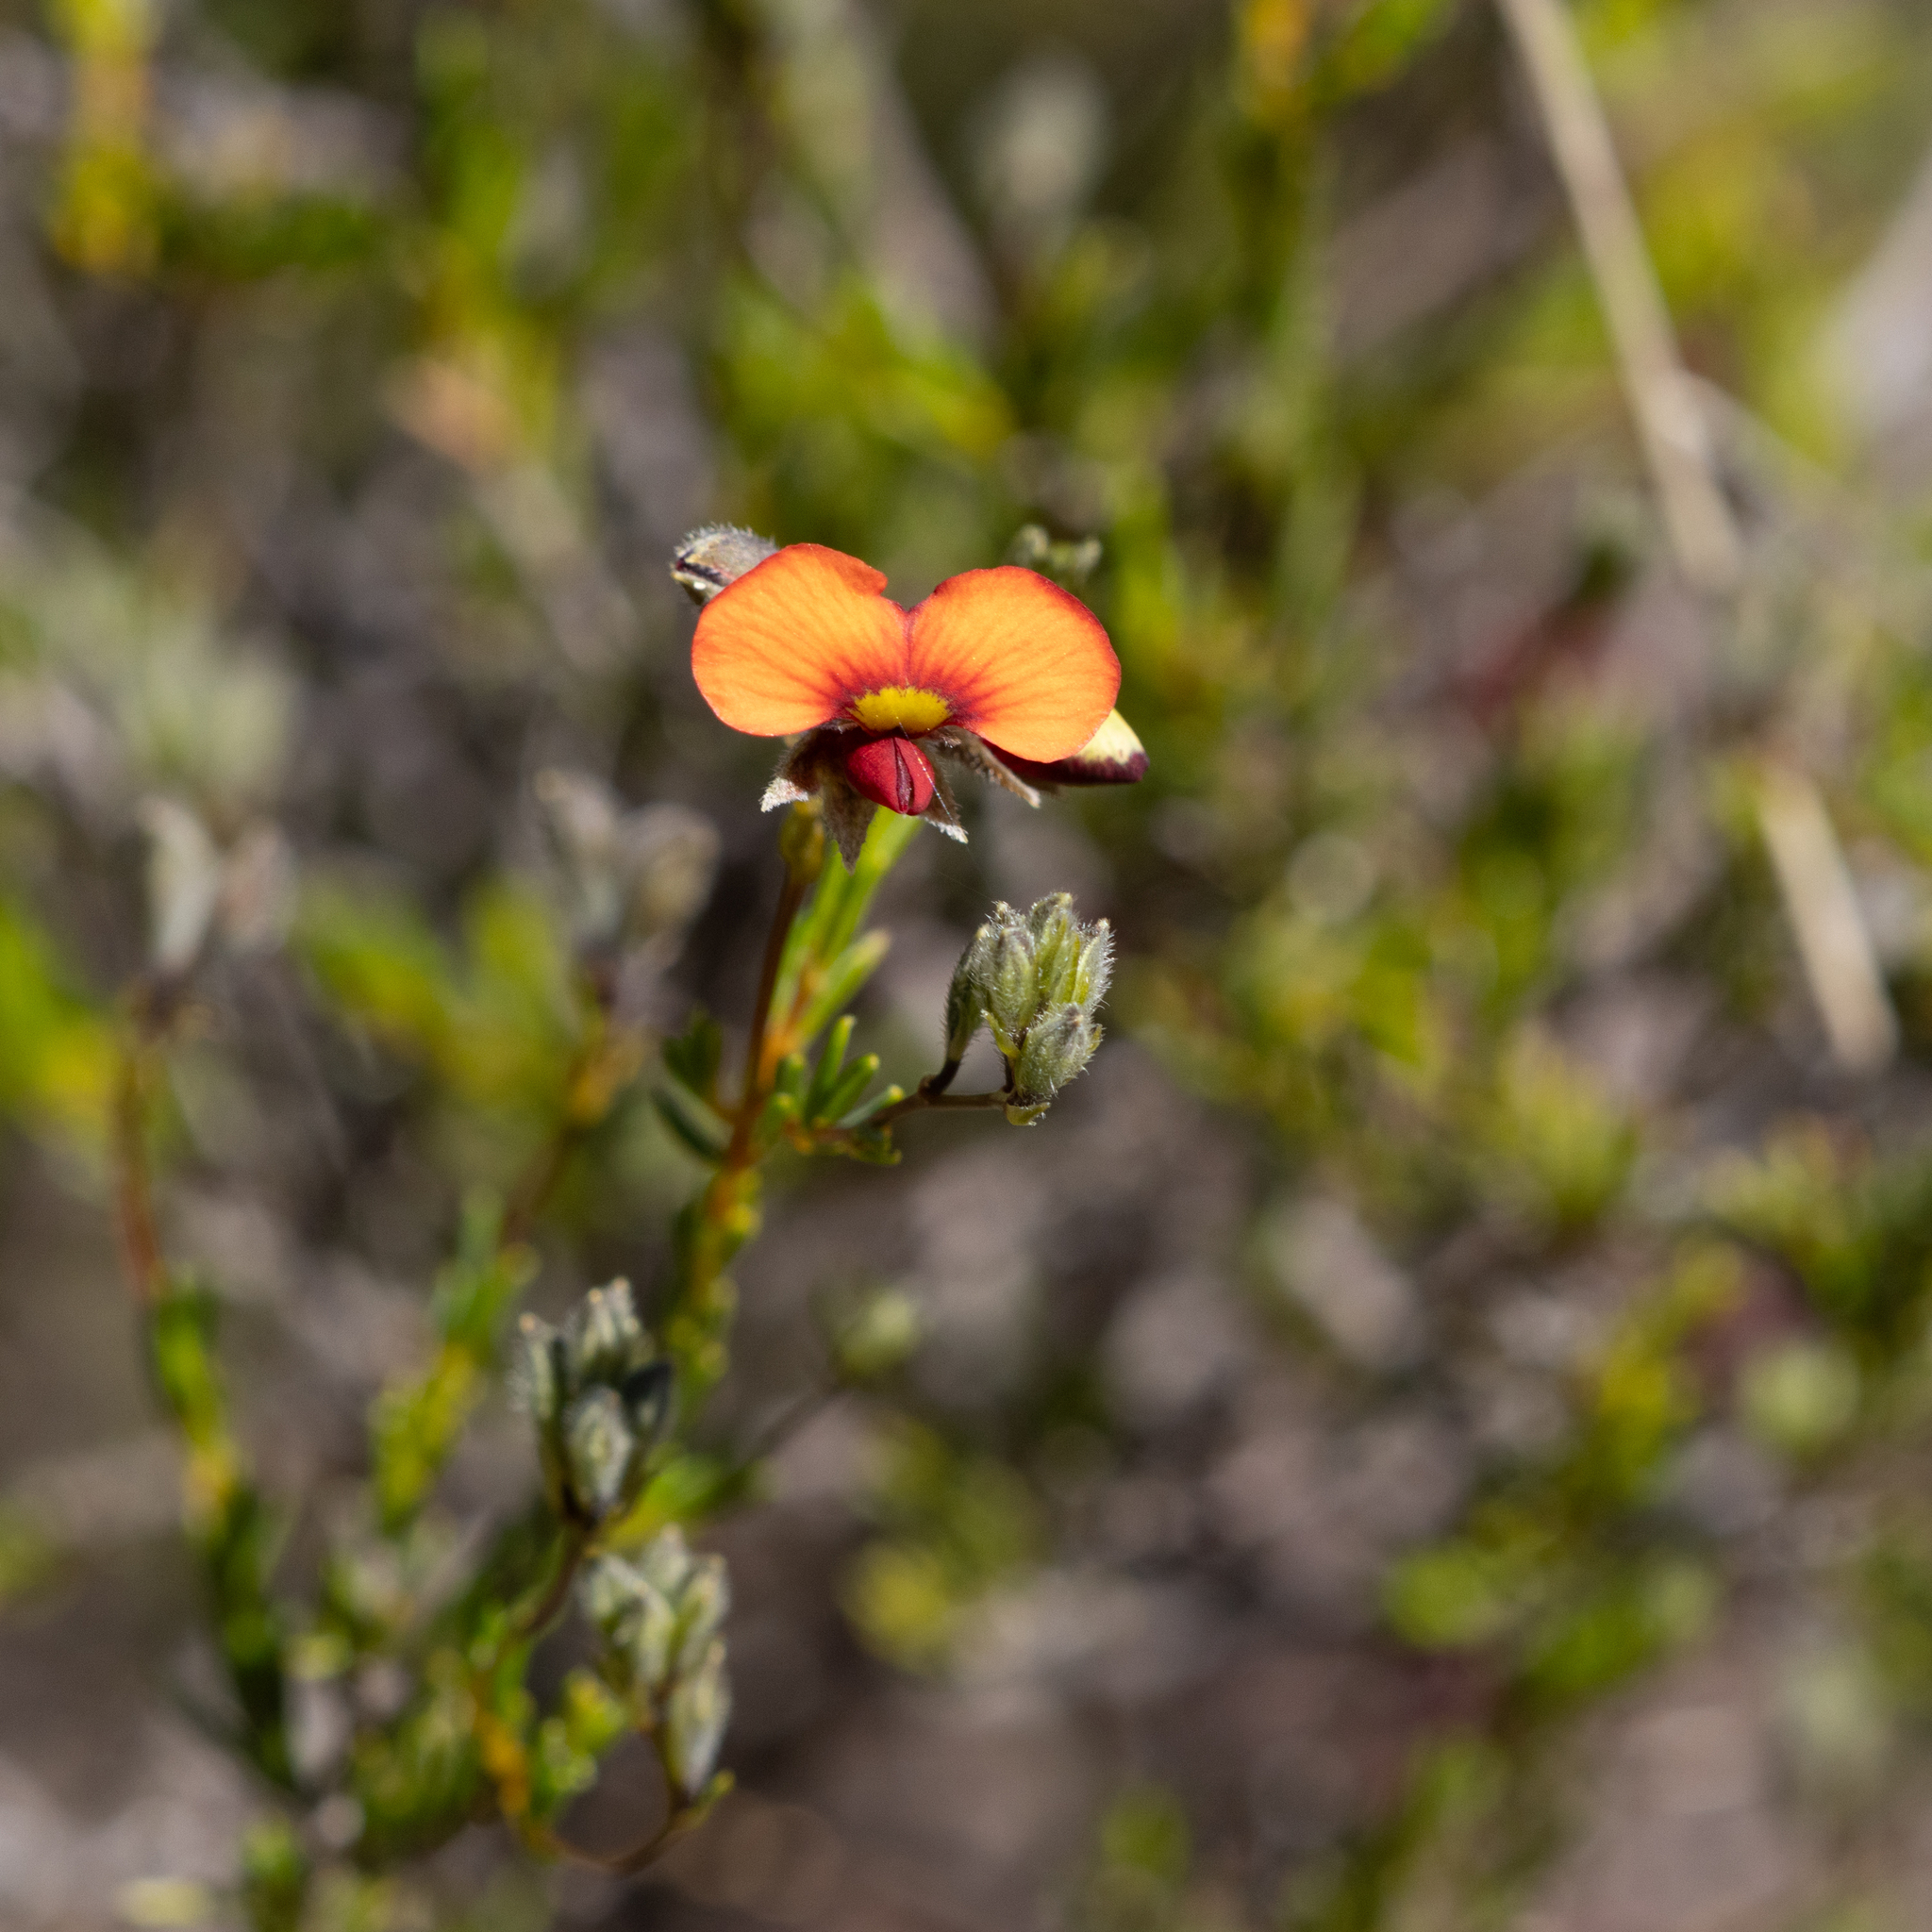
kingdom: Plantae
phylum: Tracheophyta
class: Magnoliopsida
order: Fabales
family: Fabaceae
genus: Dillwynia
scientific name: Dillwynia hispida
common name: Red parrot-pea
